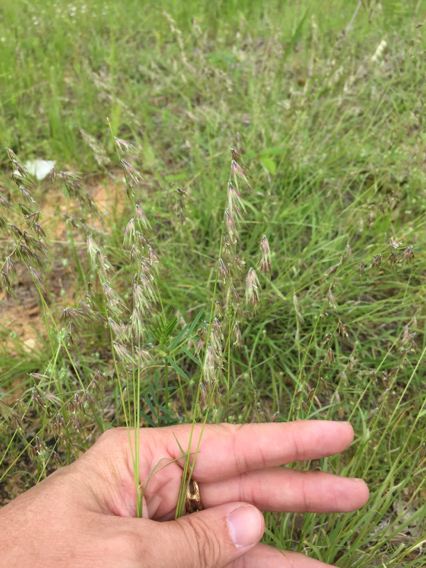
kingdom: Plantae
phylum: Tracheophyta
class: Liliopsida
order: Poales
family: Poaceae
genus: Bouteloua
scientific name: Bouteloua rigidiseta
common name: Texas grama
